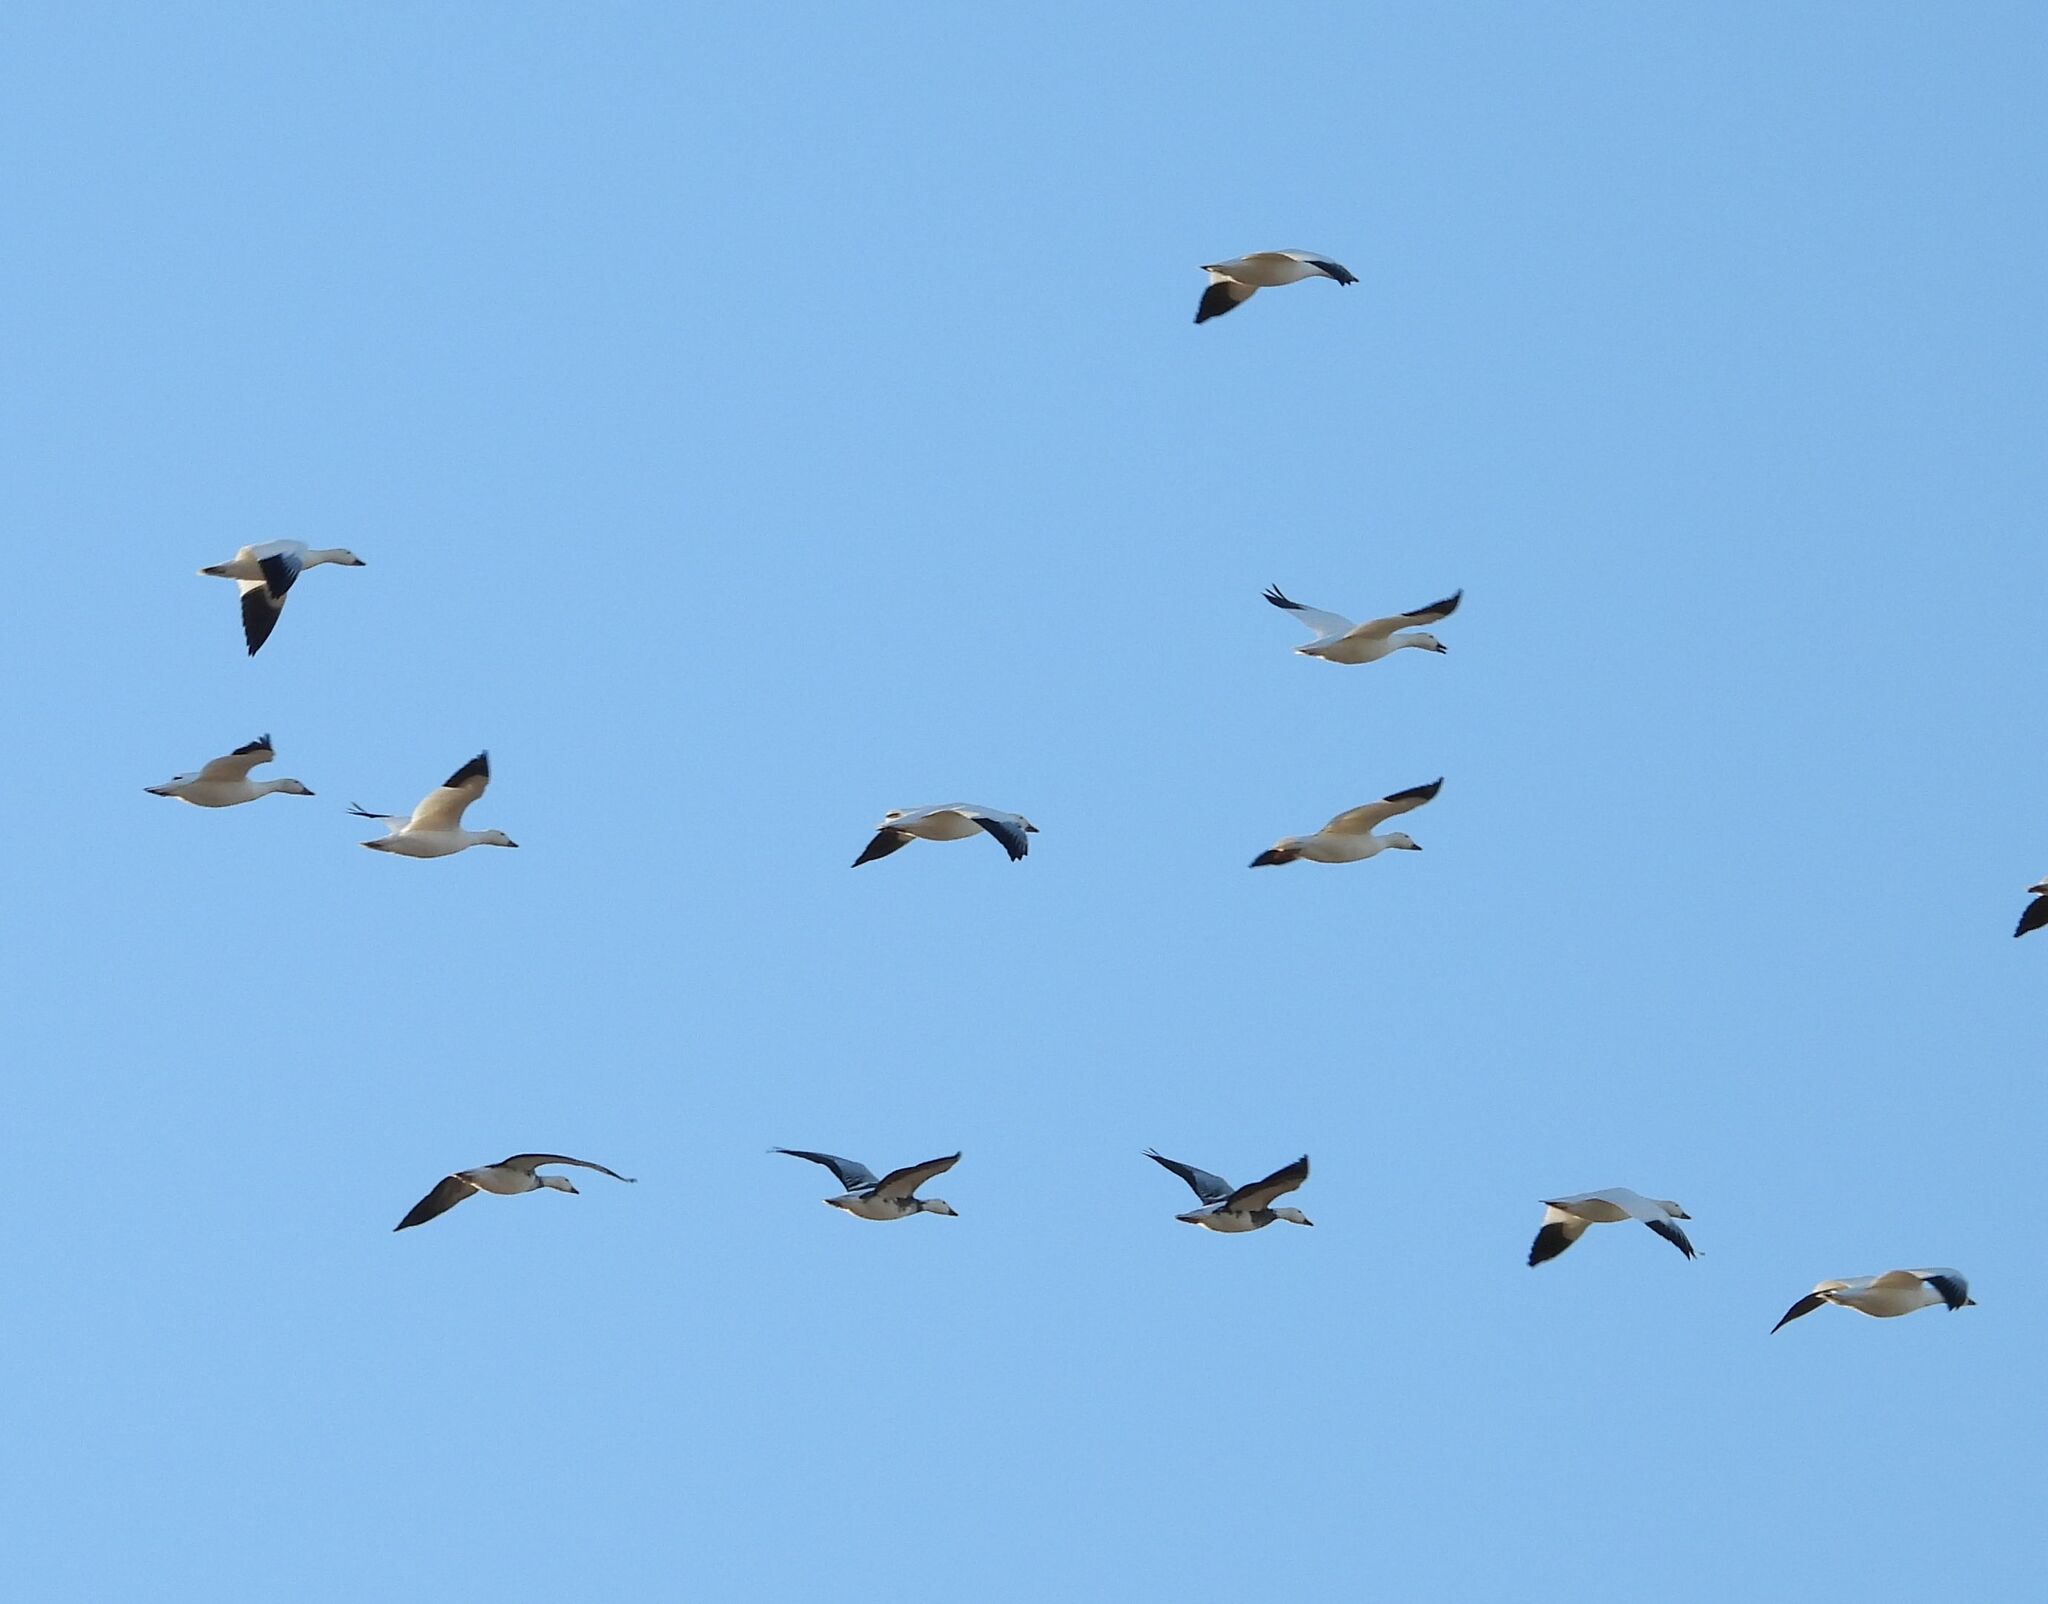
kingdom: Animalia
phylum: Chordata
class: Aves
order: Anseriformes
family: Anatidae
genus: Anser
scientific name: Anser caerulescens
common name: Snow goose
